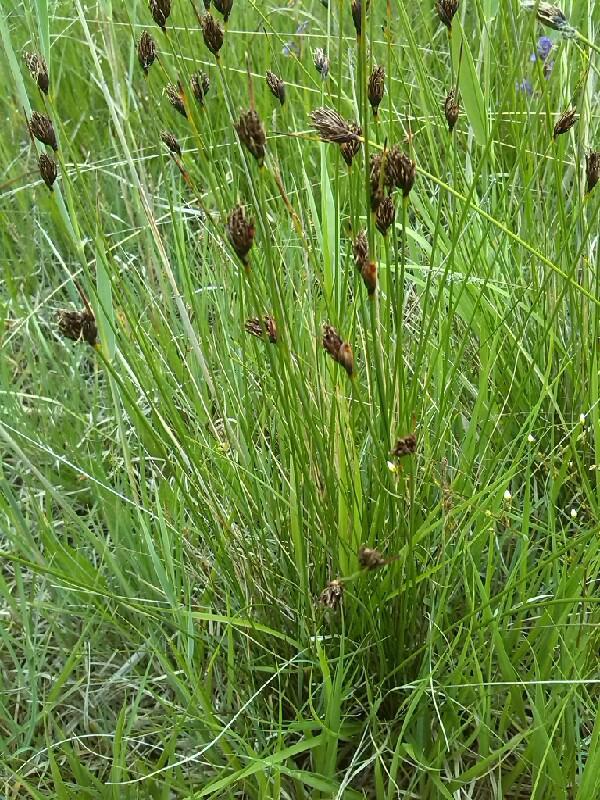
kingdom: Plantae
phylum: Tracheophyta
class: Liliopsida
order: Poales
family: Cyperaceae
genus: Schoenus
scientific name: Schoenus nigricans
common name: Black bog-rush
